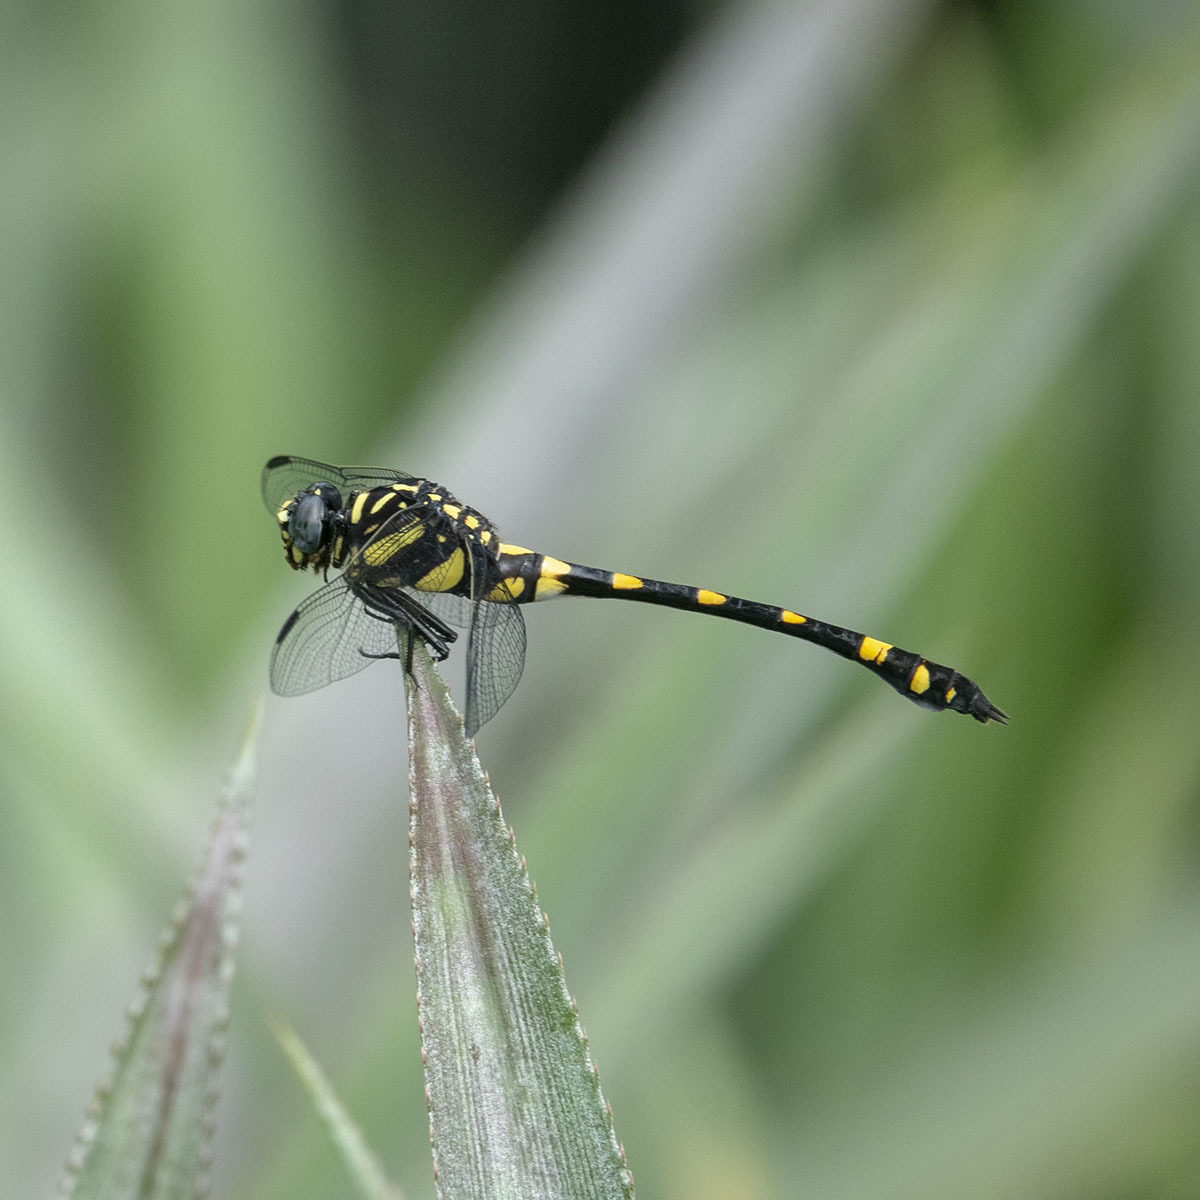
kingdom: Animalia
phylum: Arthropoda
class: Insecta
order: Odonata
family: Gomphidae
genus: Ictinogomphus
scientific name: Ictinogomphus rapax
